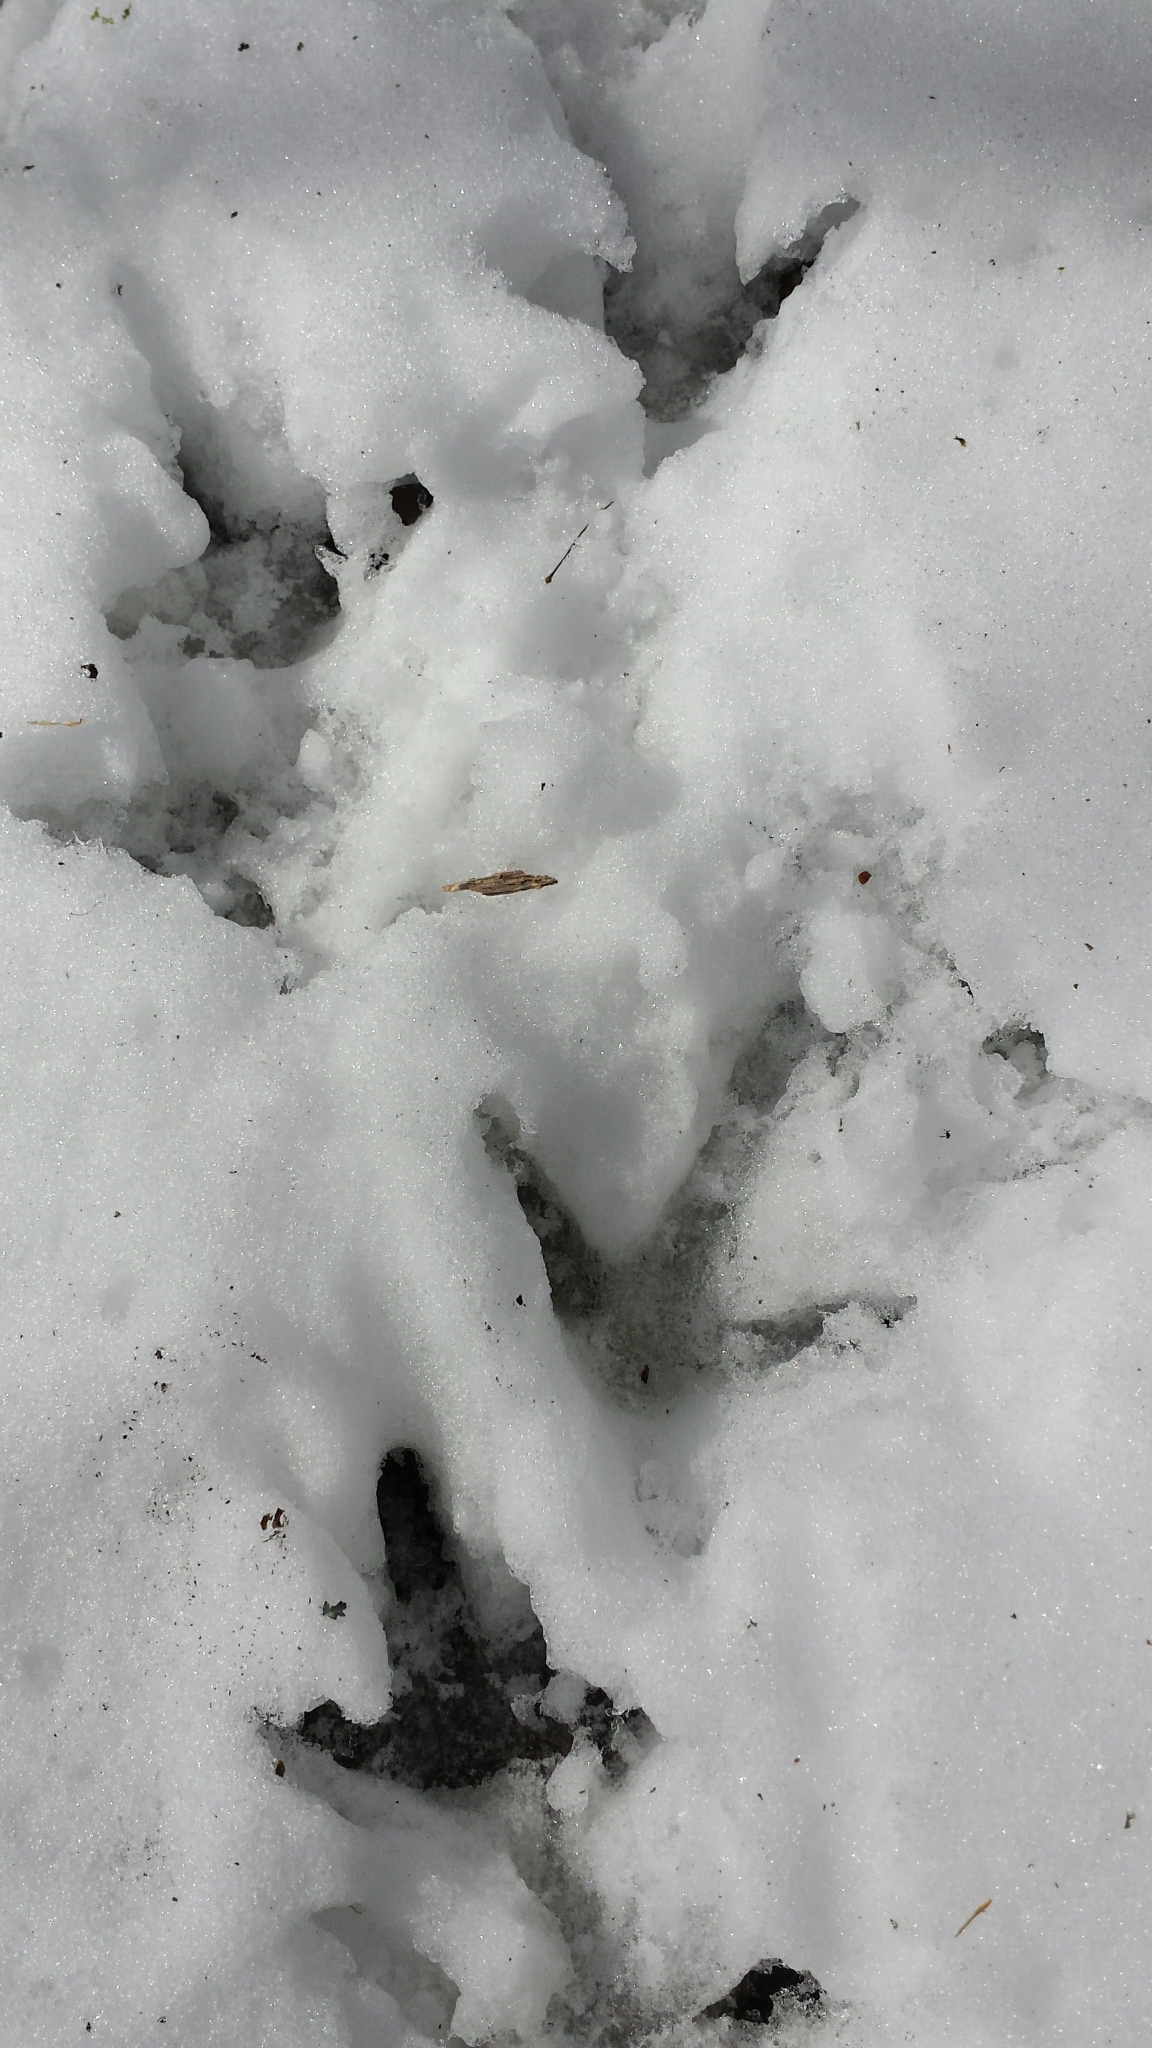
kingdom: Animalia
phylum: Chordata
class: Aves
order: Galliformes
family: Phasianidae
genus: Meleagris
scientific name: Meleagris gallopavo
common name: Wild turkey
